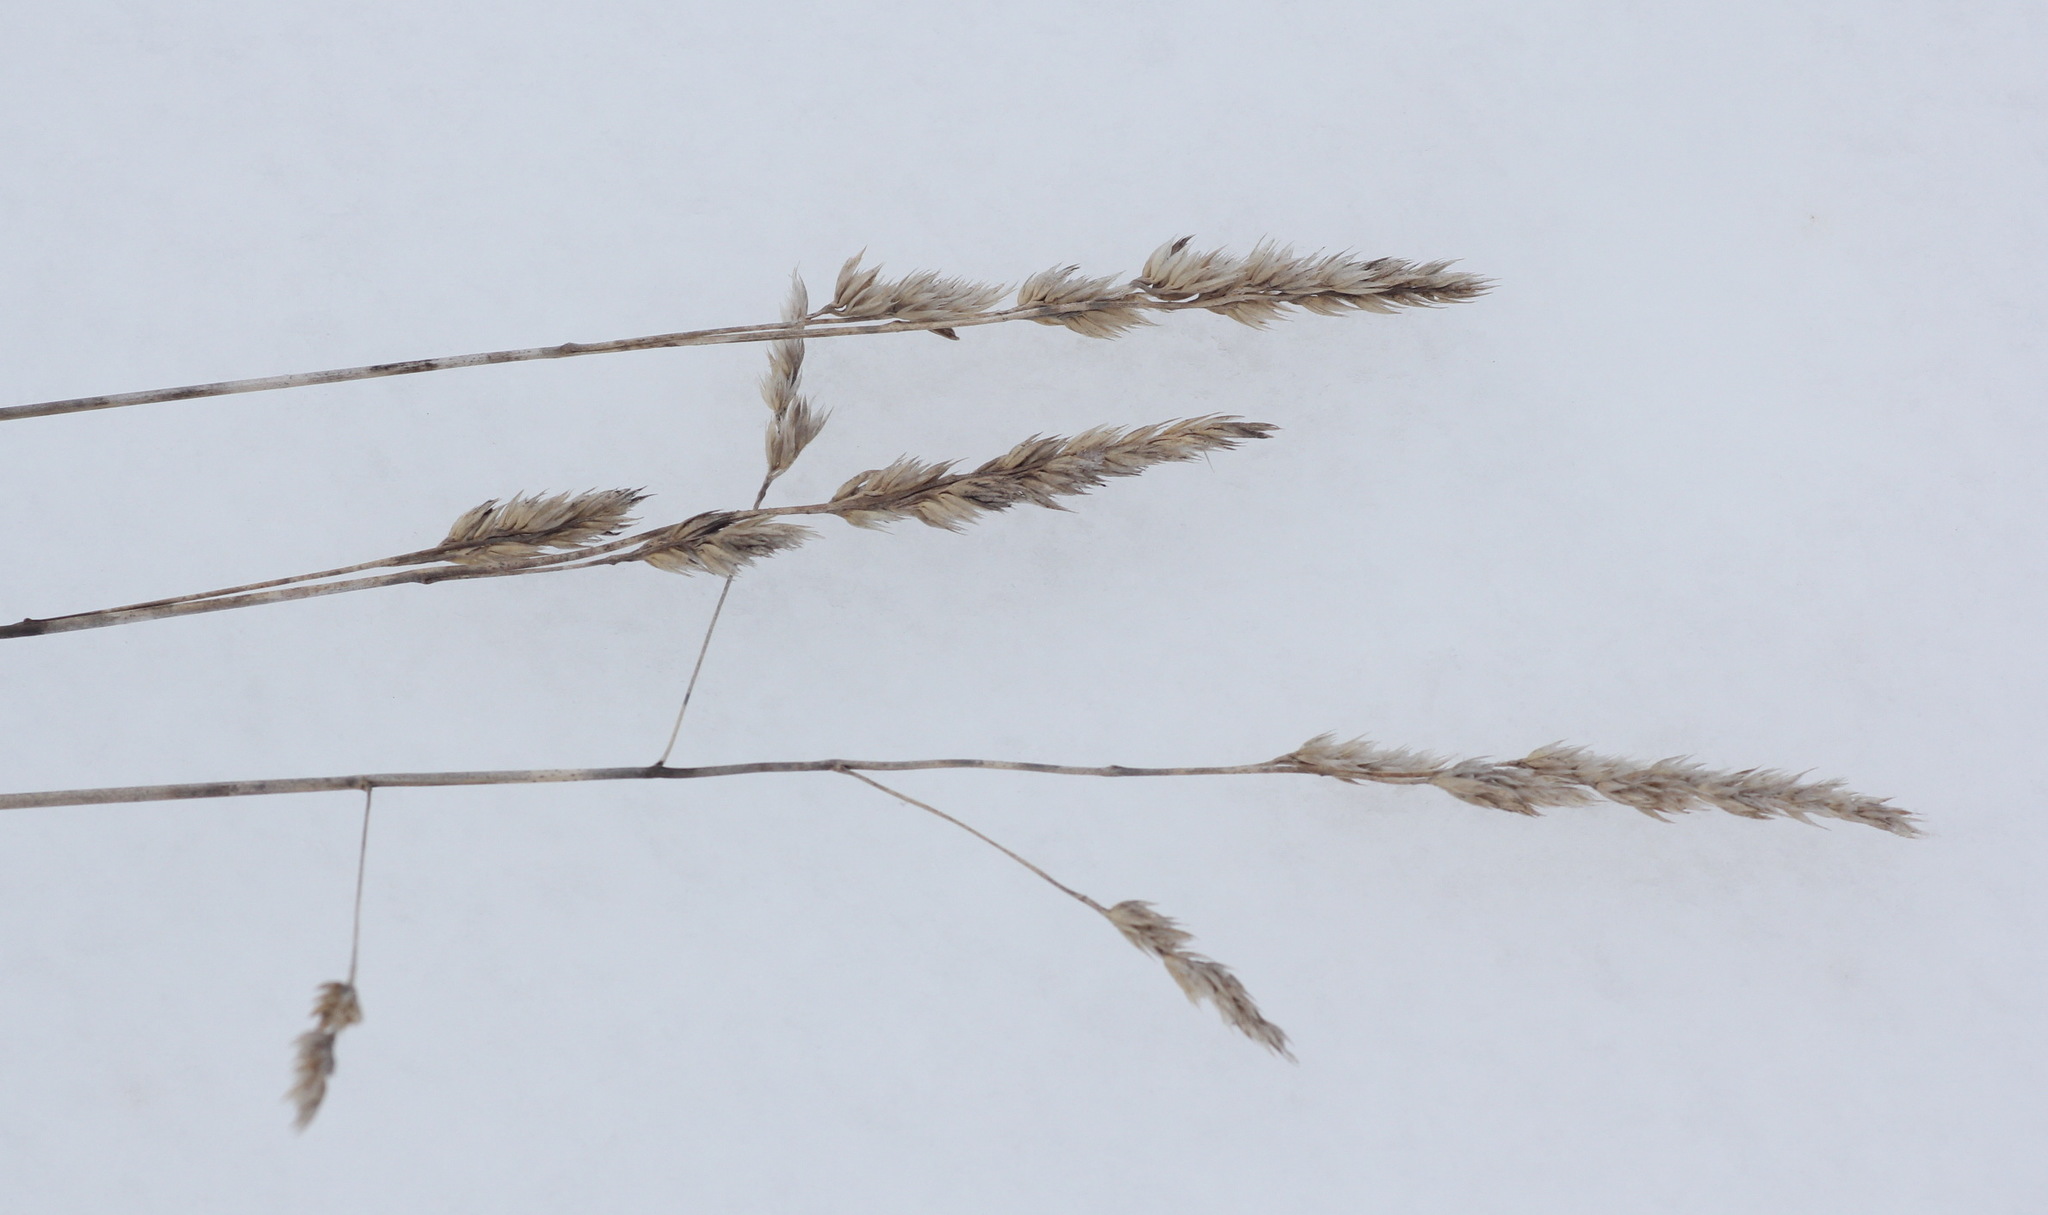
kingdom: Plantae
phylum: Tracheophyta
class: Liliopsida
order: Poales
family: Poaceae
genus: Dactylis
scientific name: Dactylis glomerata
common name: Orchardgrass
